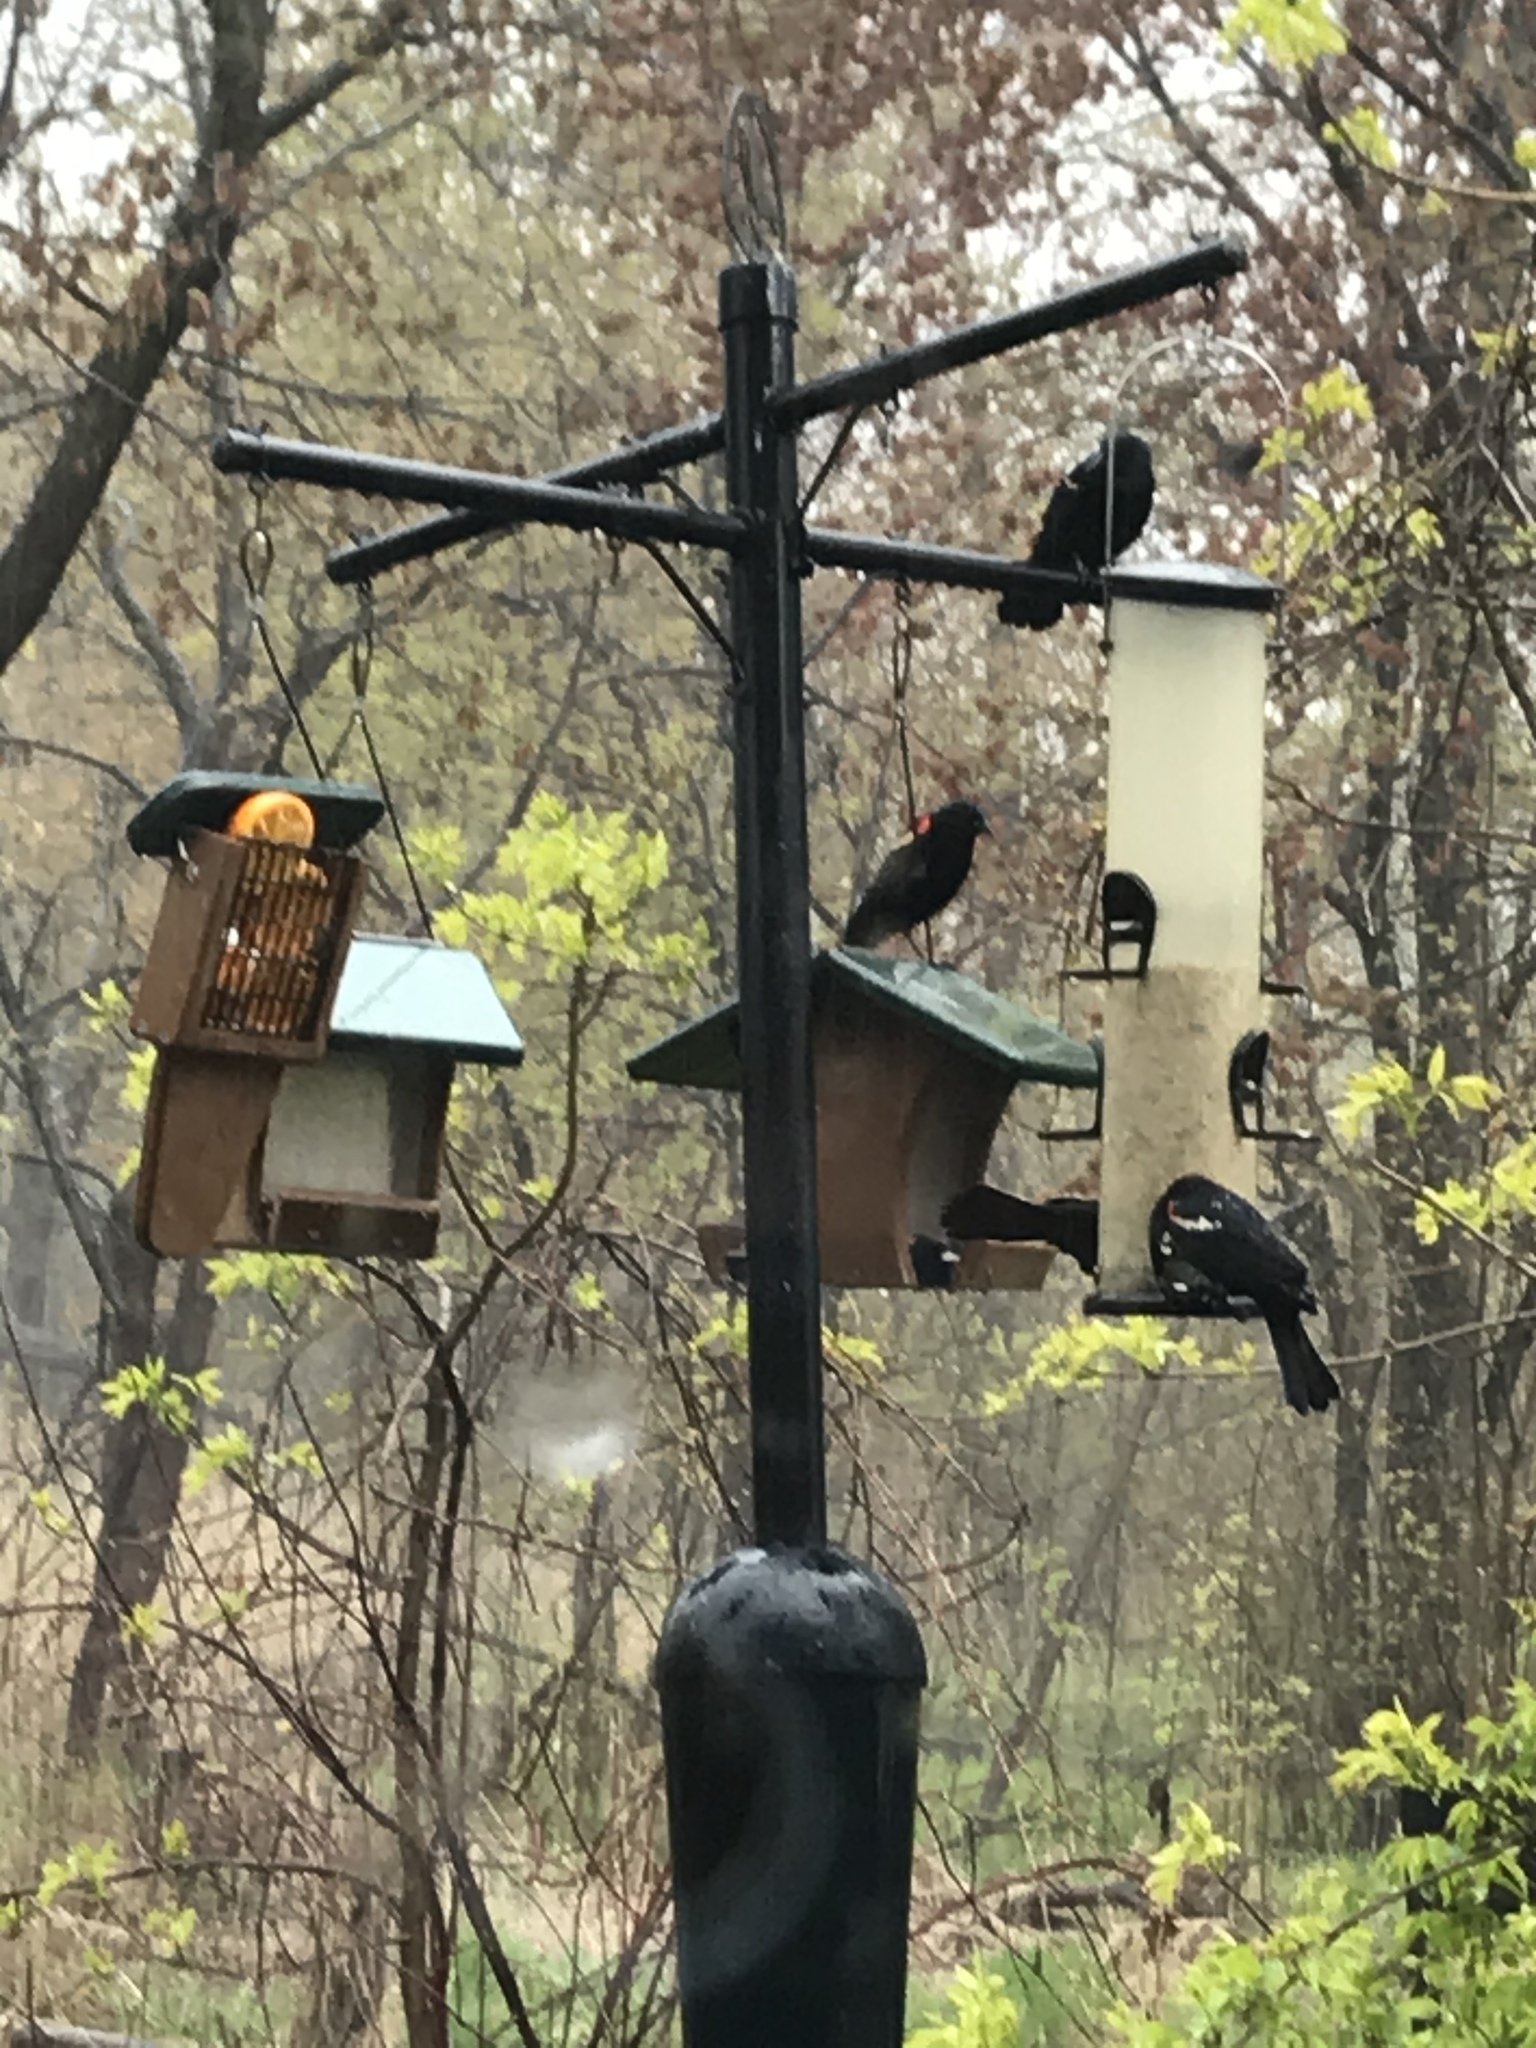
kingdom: Animalia
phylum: Chordata
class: Aves
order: Passeriformes
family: Icteridae
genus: Agelaius
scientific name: Agelaius phoeniceus
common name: Red-winged blackbird
